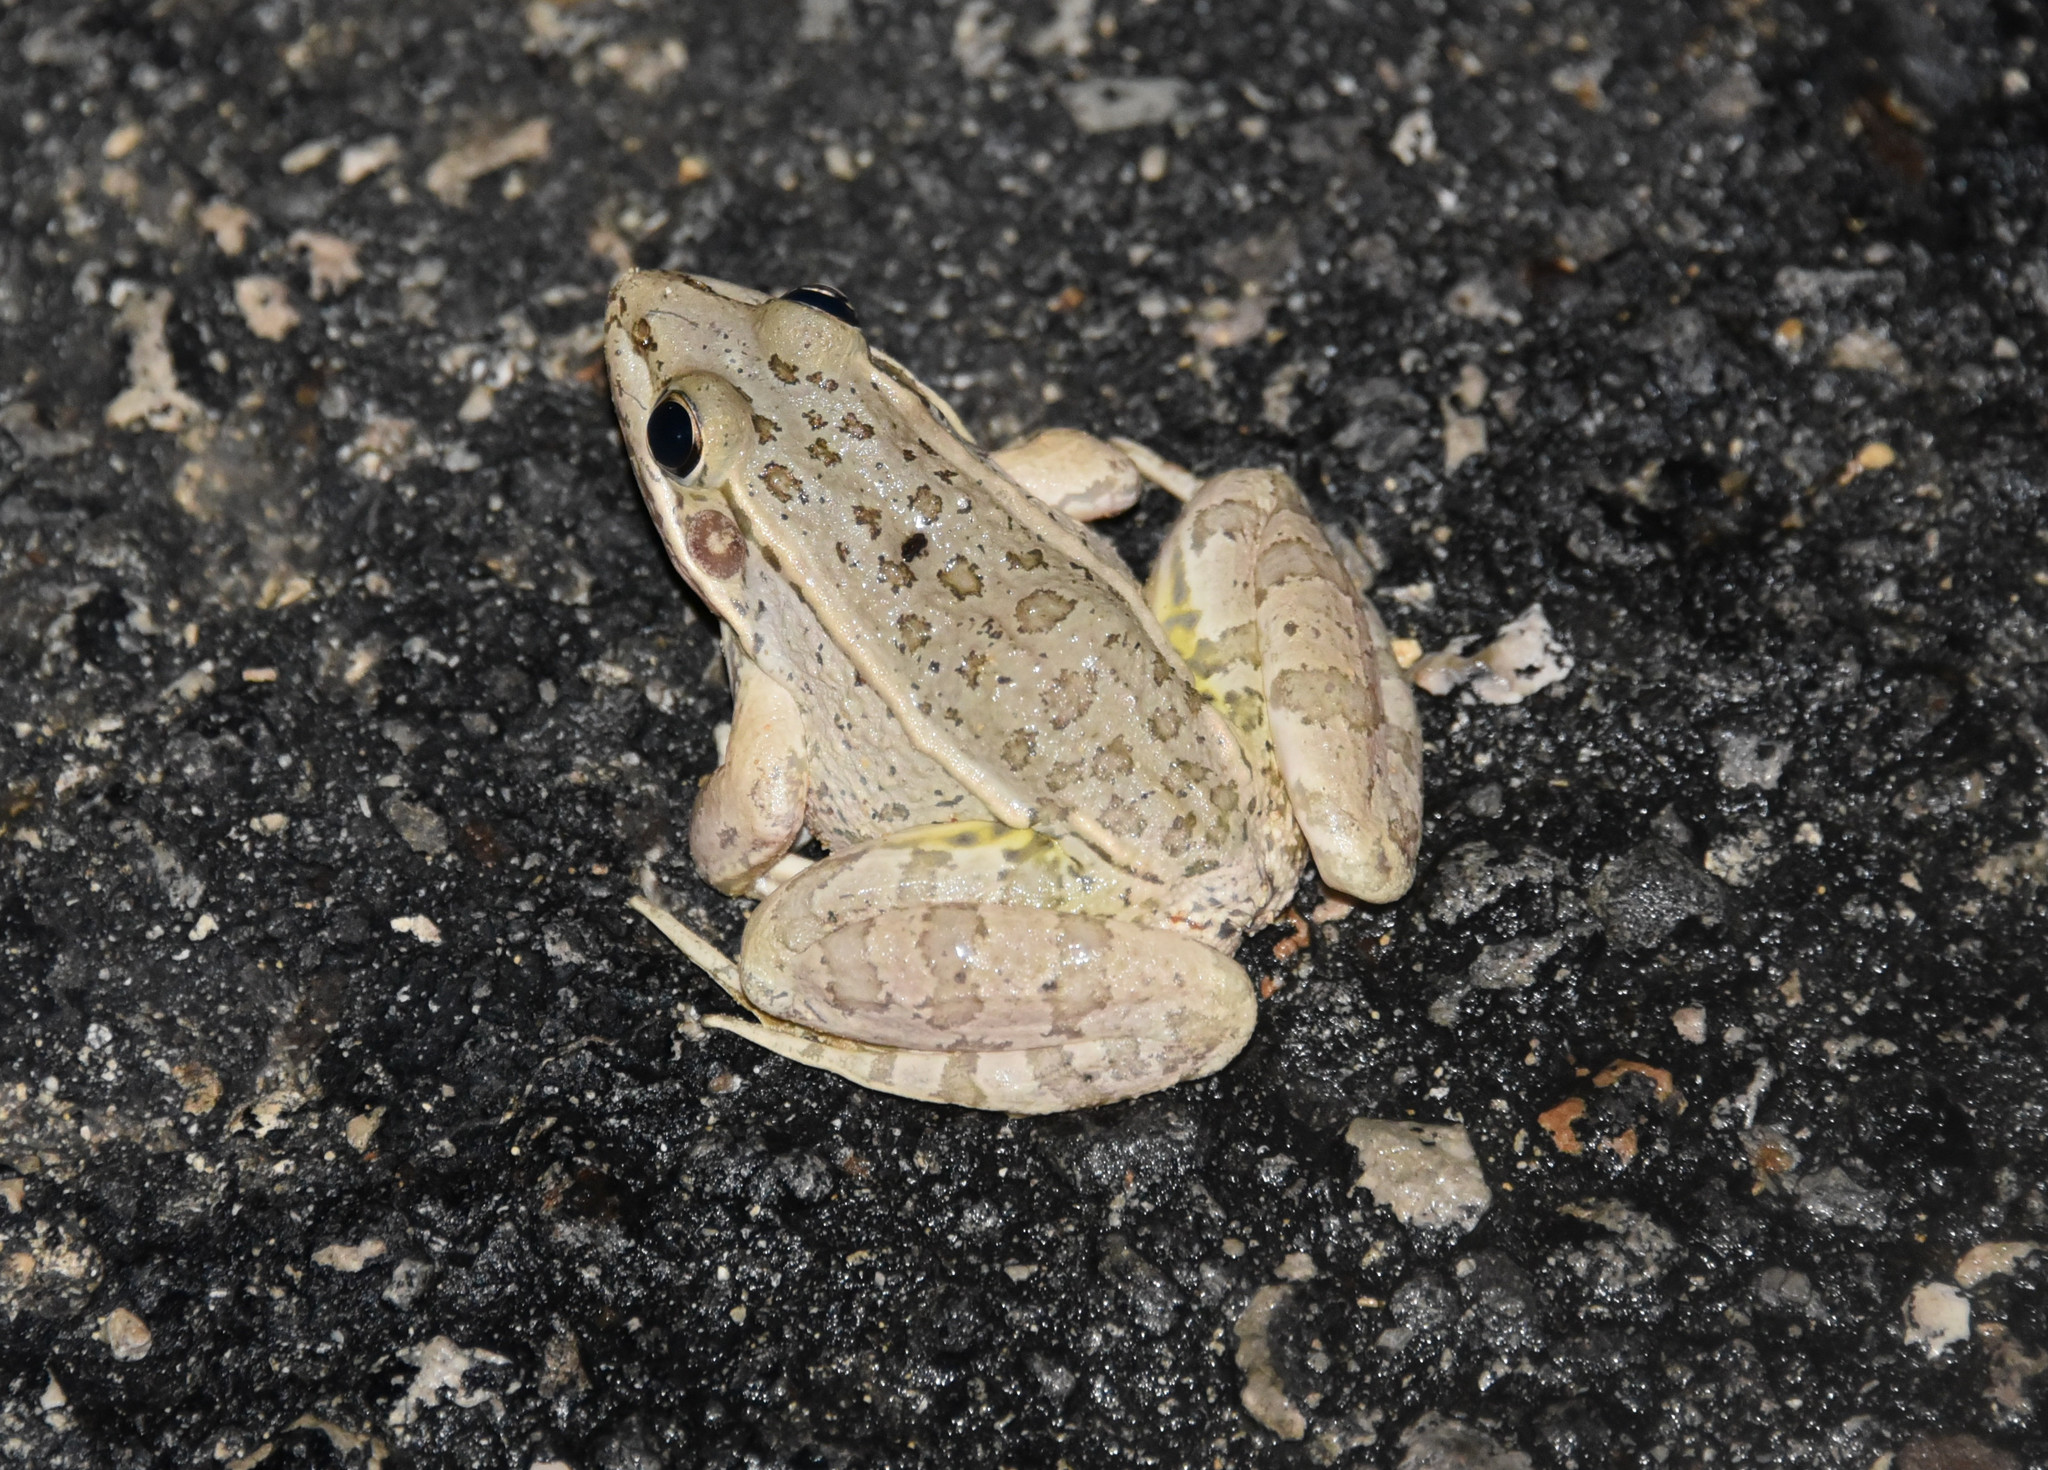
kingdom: Animalia
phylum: Chordata
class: Amphibia
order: Anura
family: Ranidae
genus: Lithobates
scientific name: Lithobates berlandieri
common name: Rio grande leopard frog
